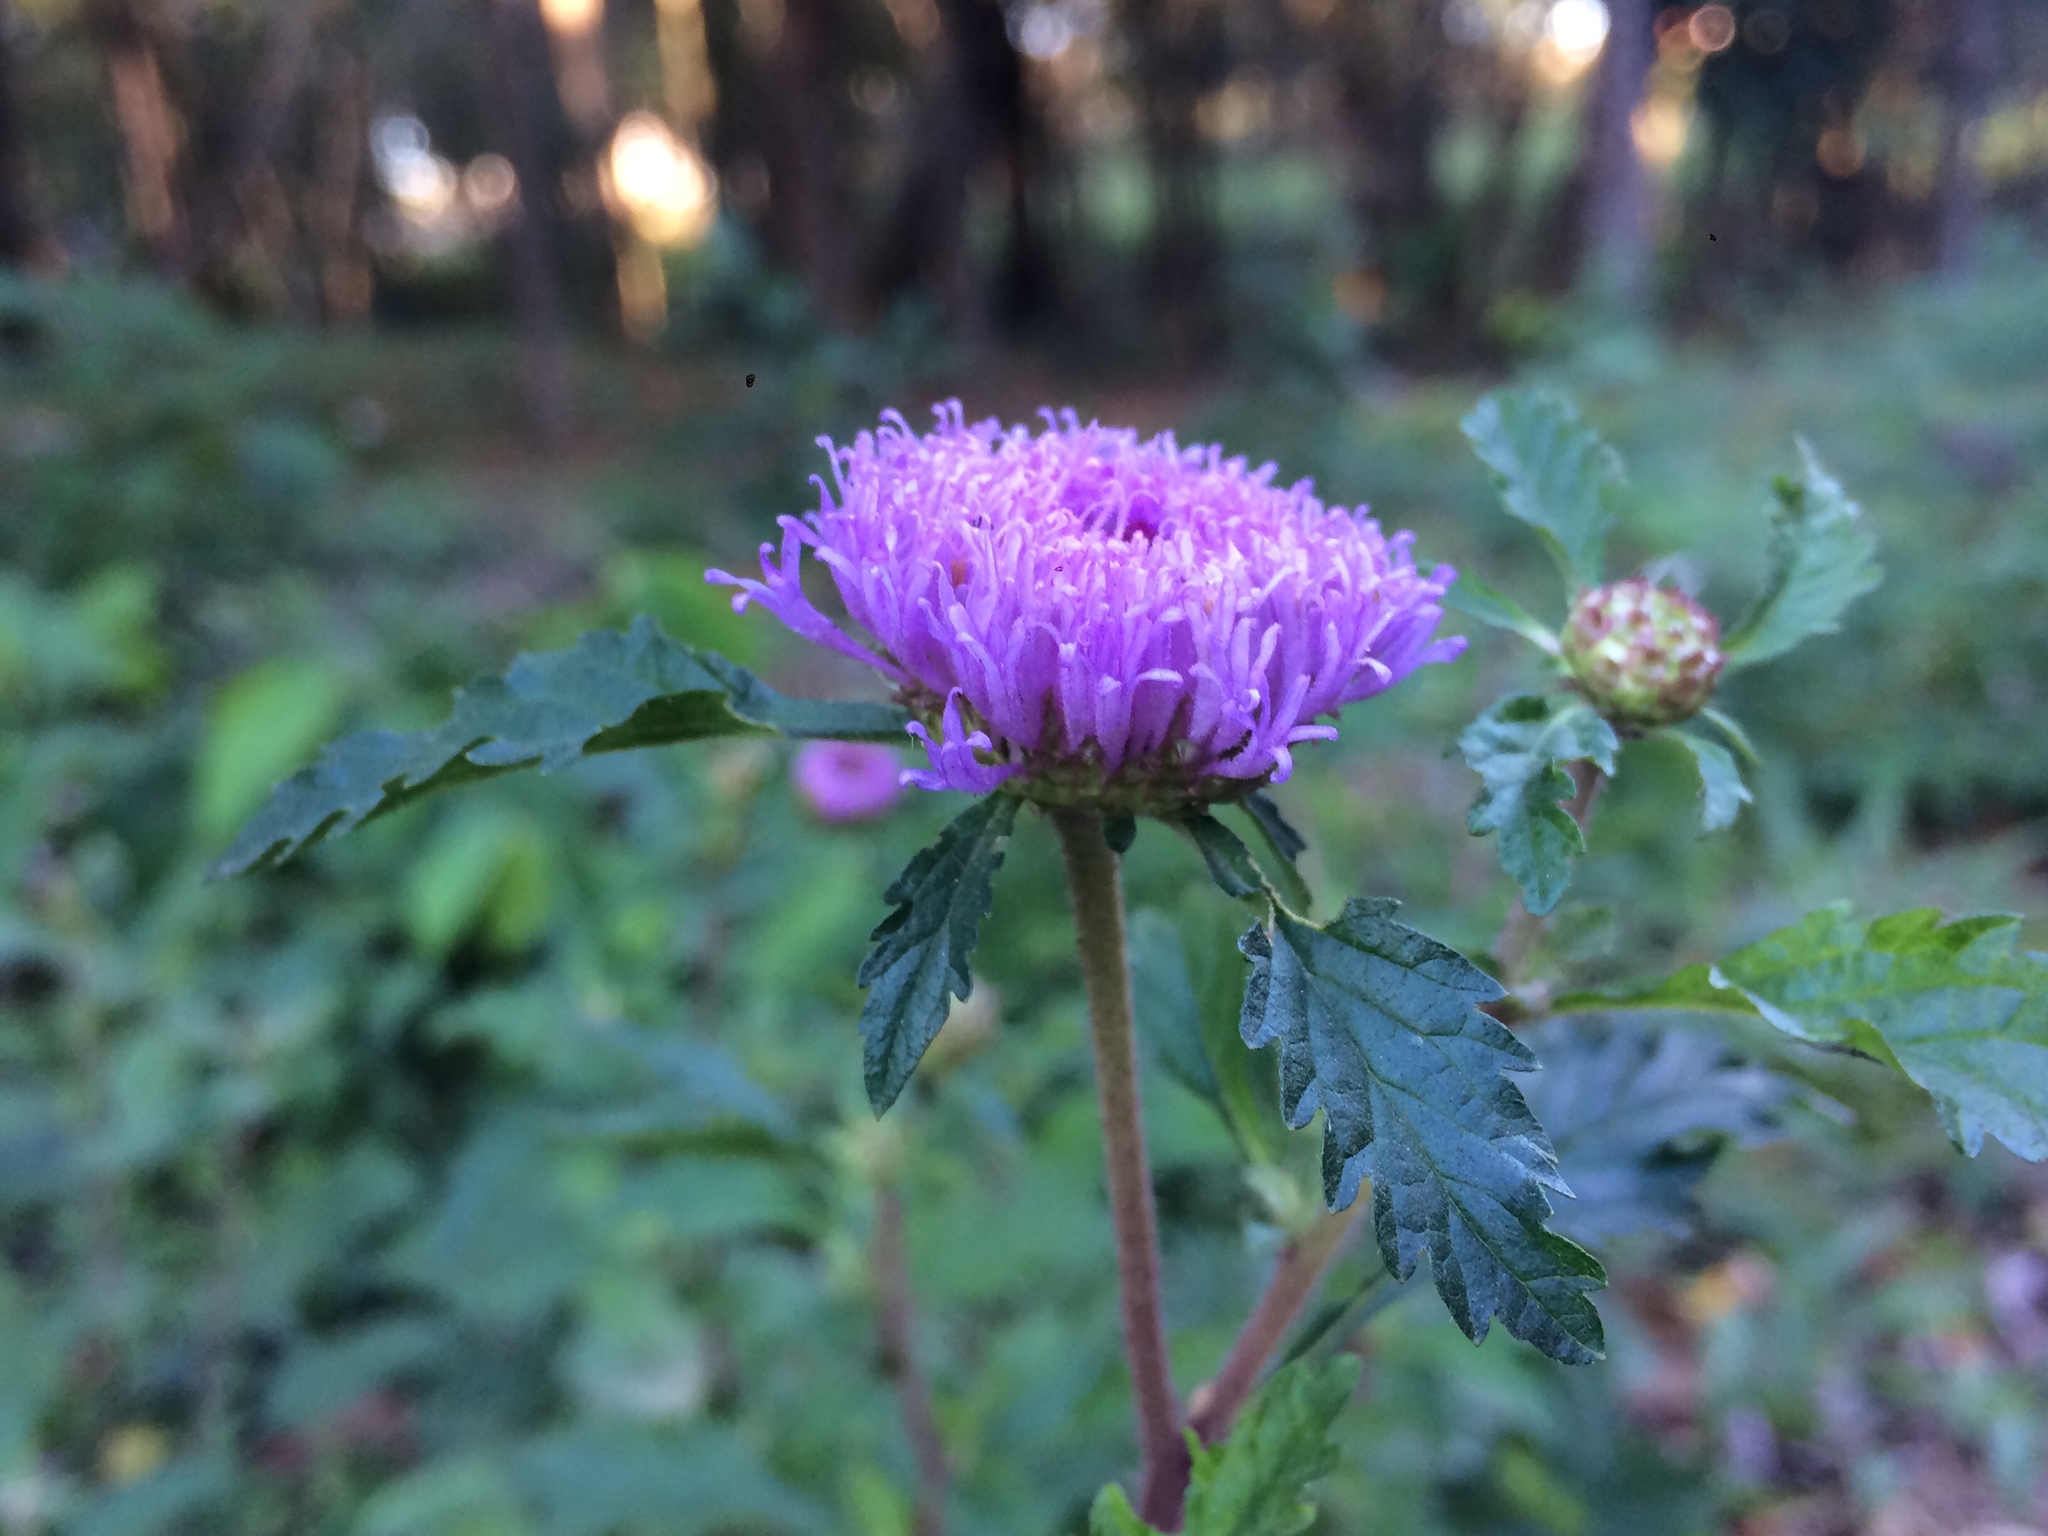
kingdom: Plantae
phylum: Tracheophyta
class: Magnoliopsida
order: Asterales
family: Asteraceae
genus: Centratherum
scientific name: Centratherum punctatum
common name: Larkdaisy
